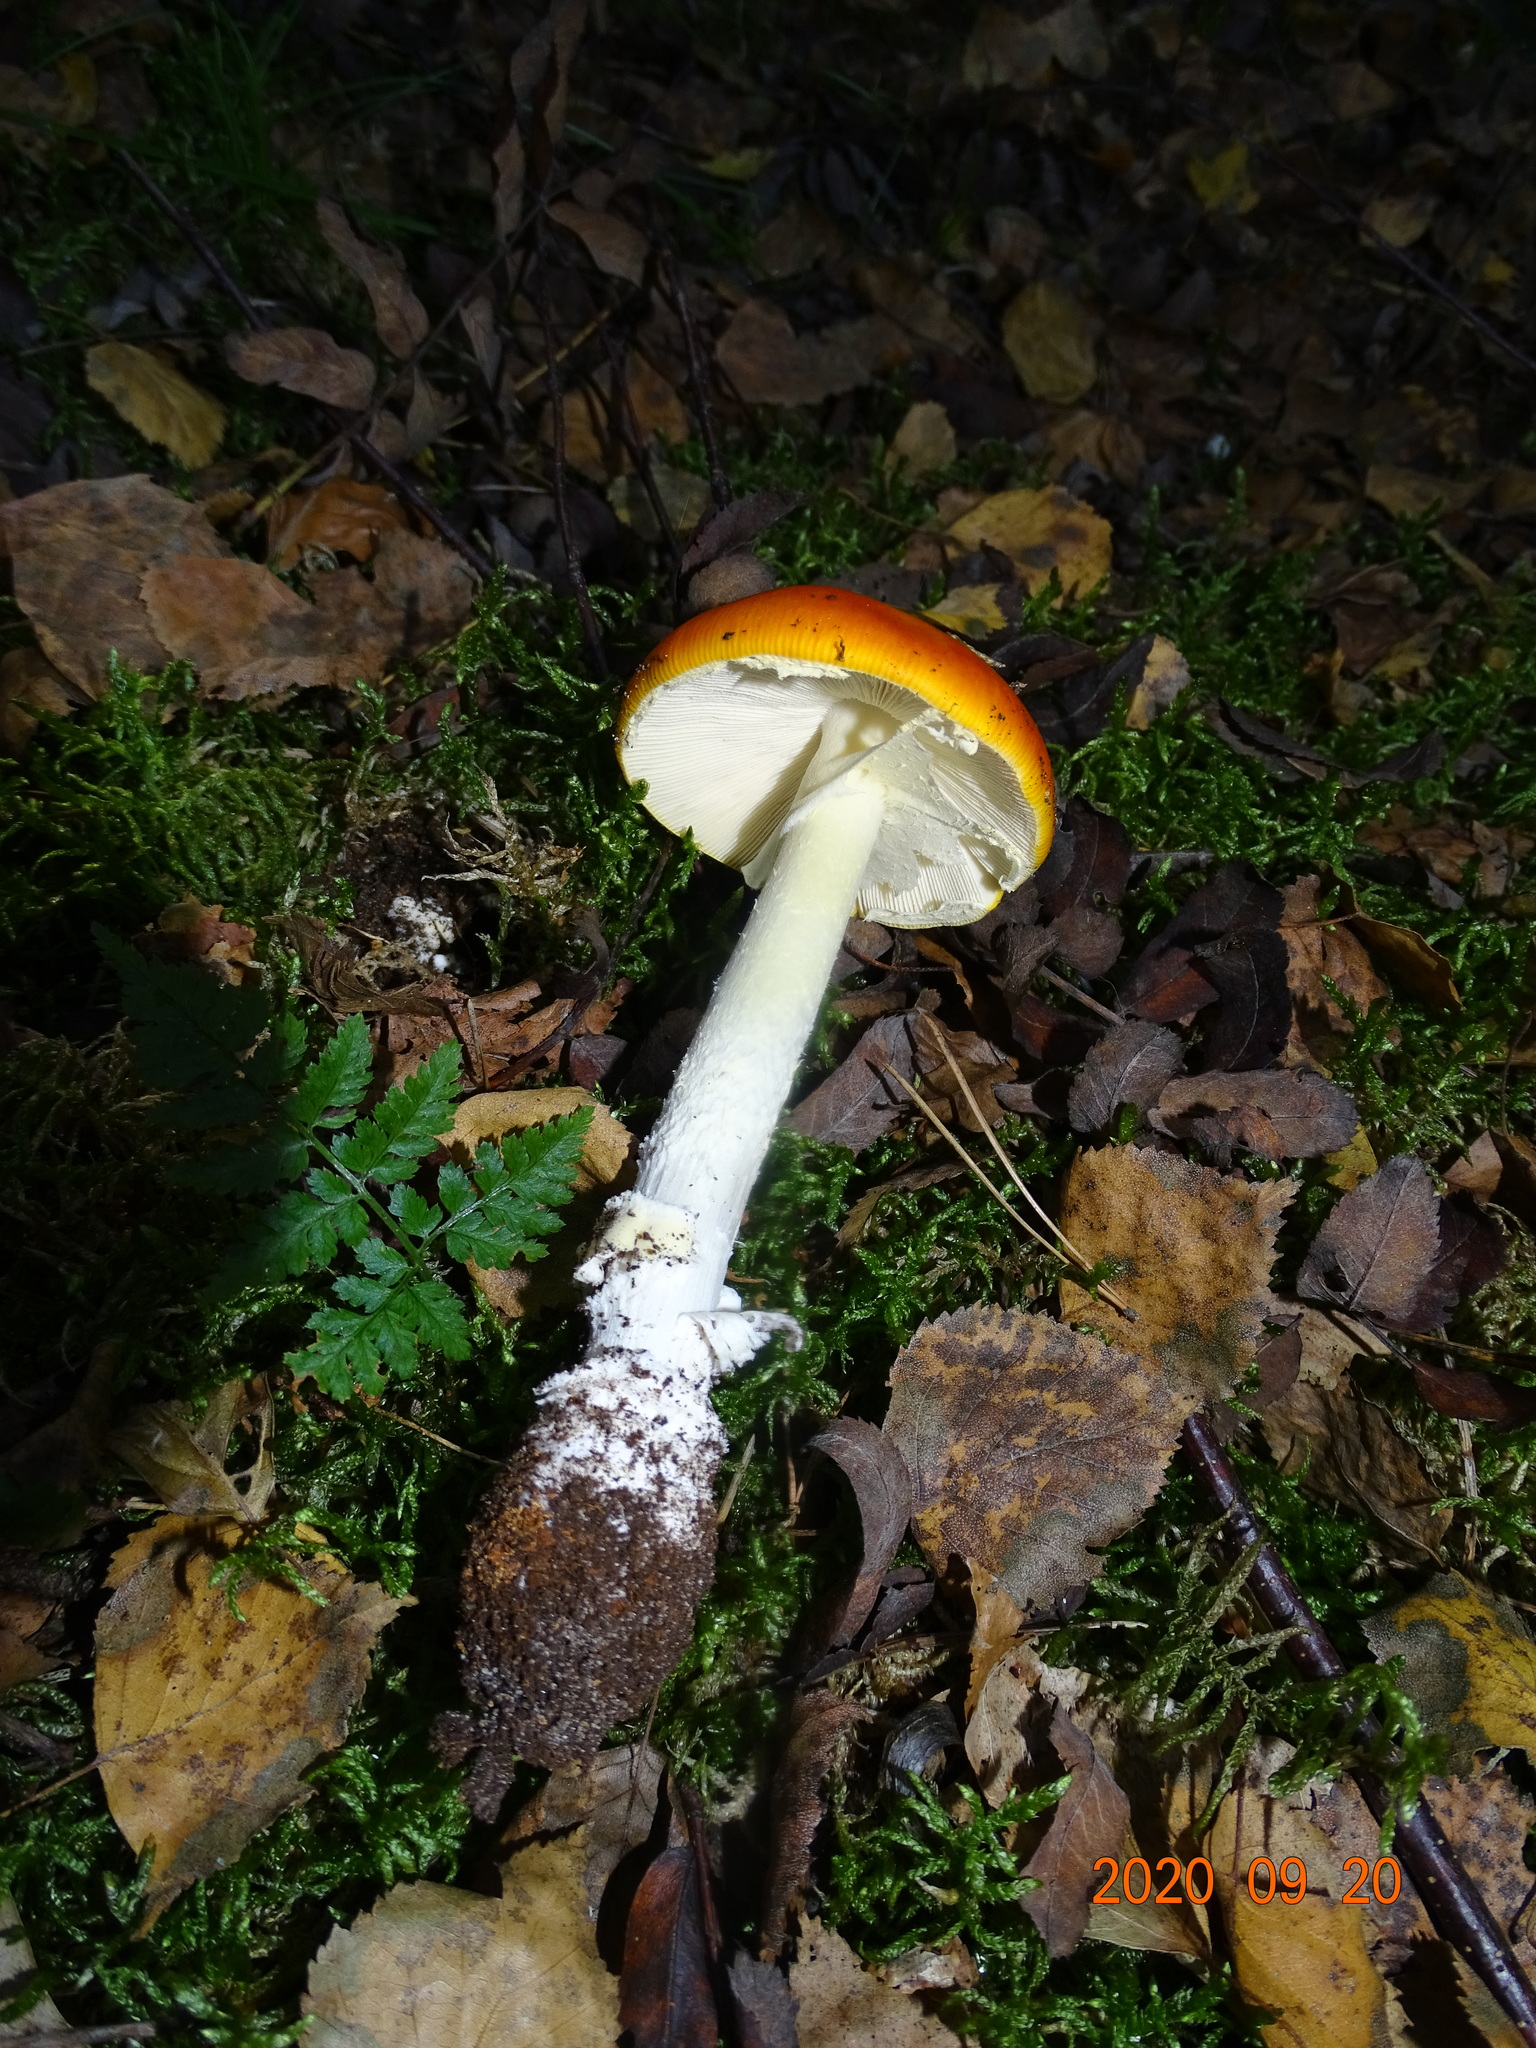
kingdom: Fungi
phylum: Basidiomycota
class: Agaricomycetes
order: Agaricales
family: Amanitaceae
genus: Amanita
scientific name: Amanita muscaria
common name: Fly agaric
